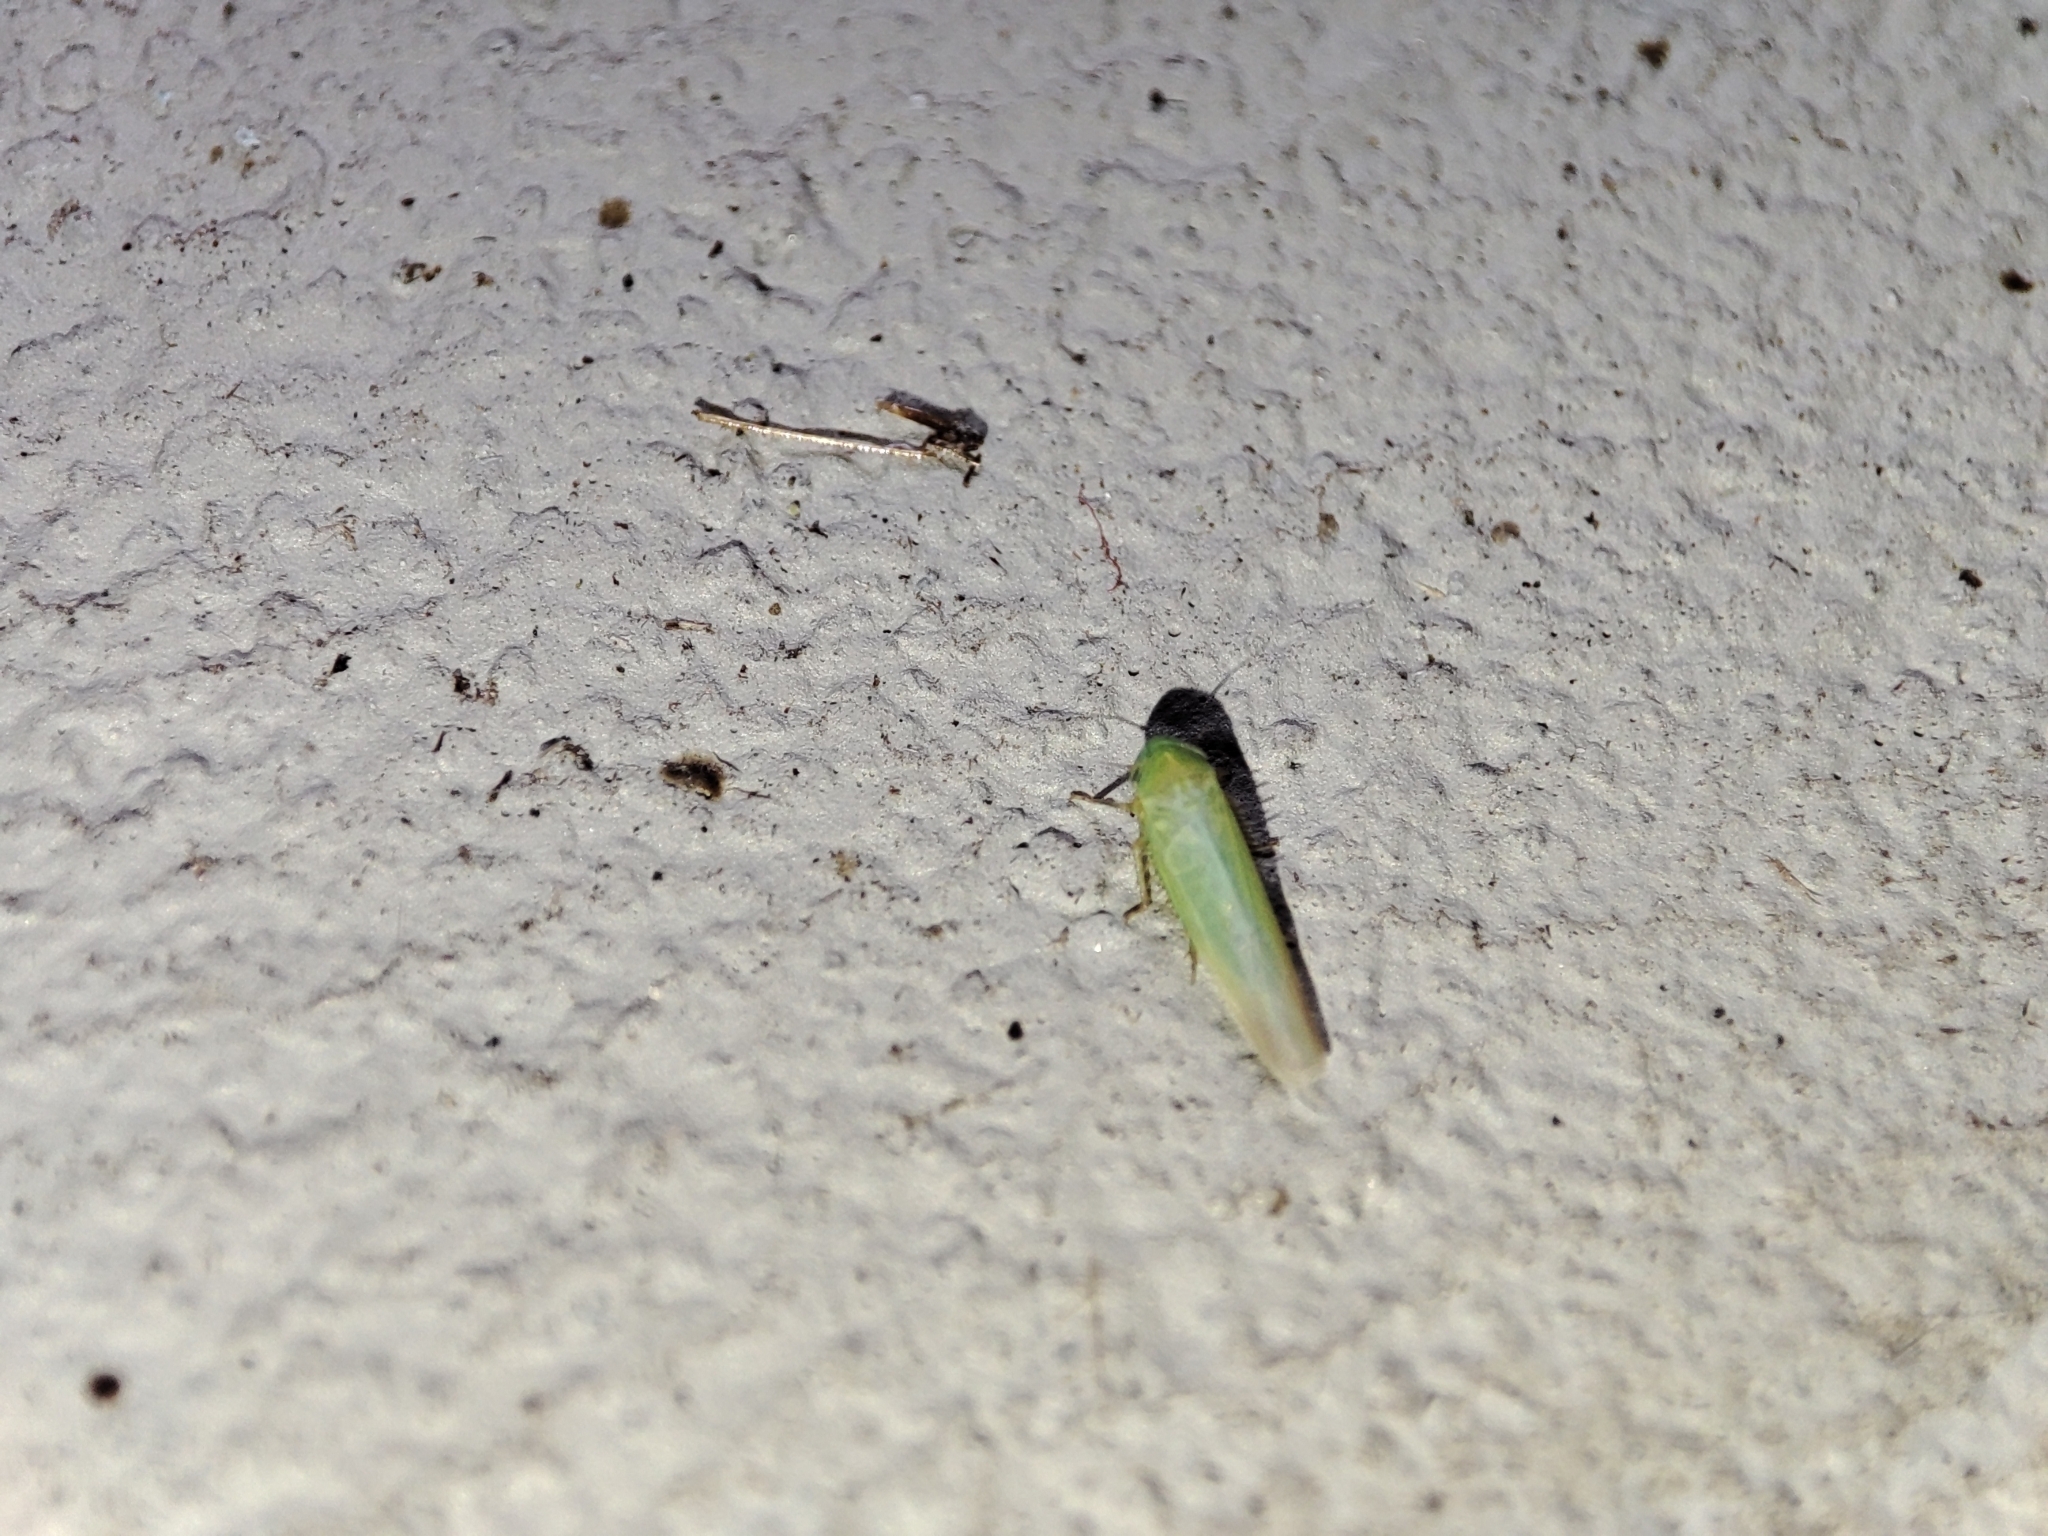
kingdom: Animalia
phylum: Arthropoda
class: Insecta
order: Hemiptera
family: Cicadellidae
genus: Hortensia
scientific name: Hortensia similis
